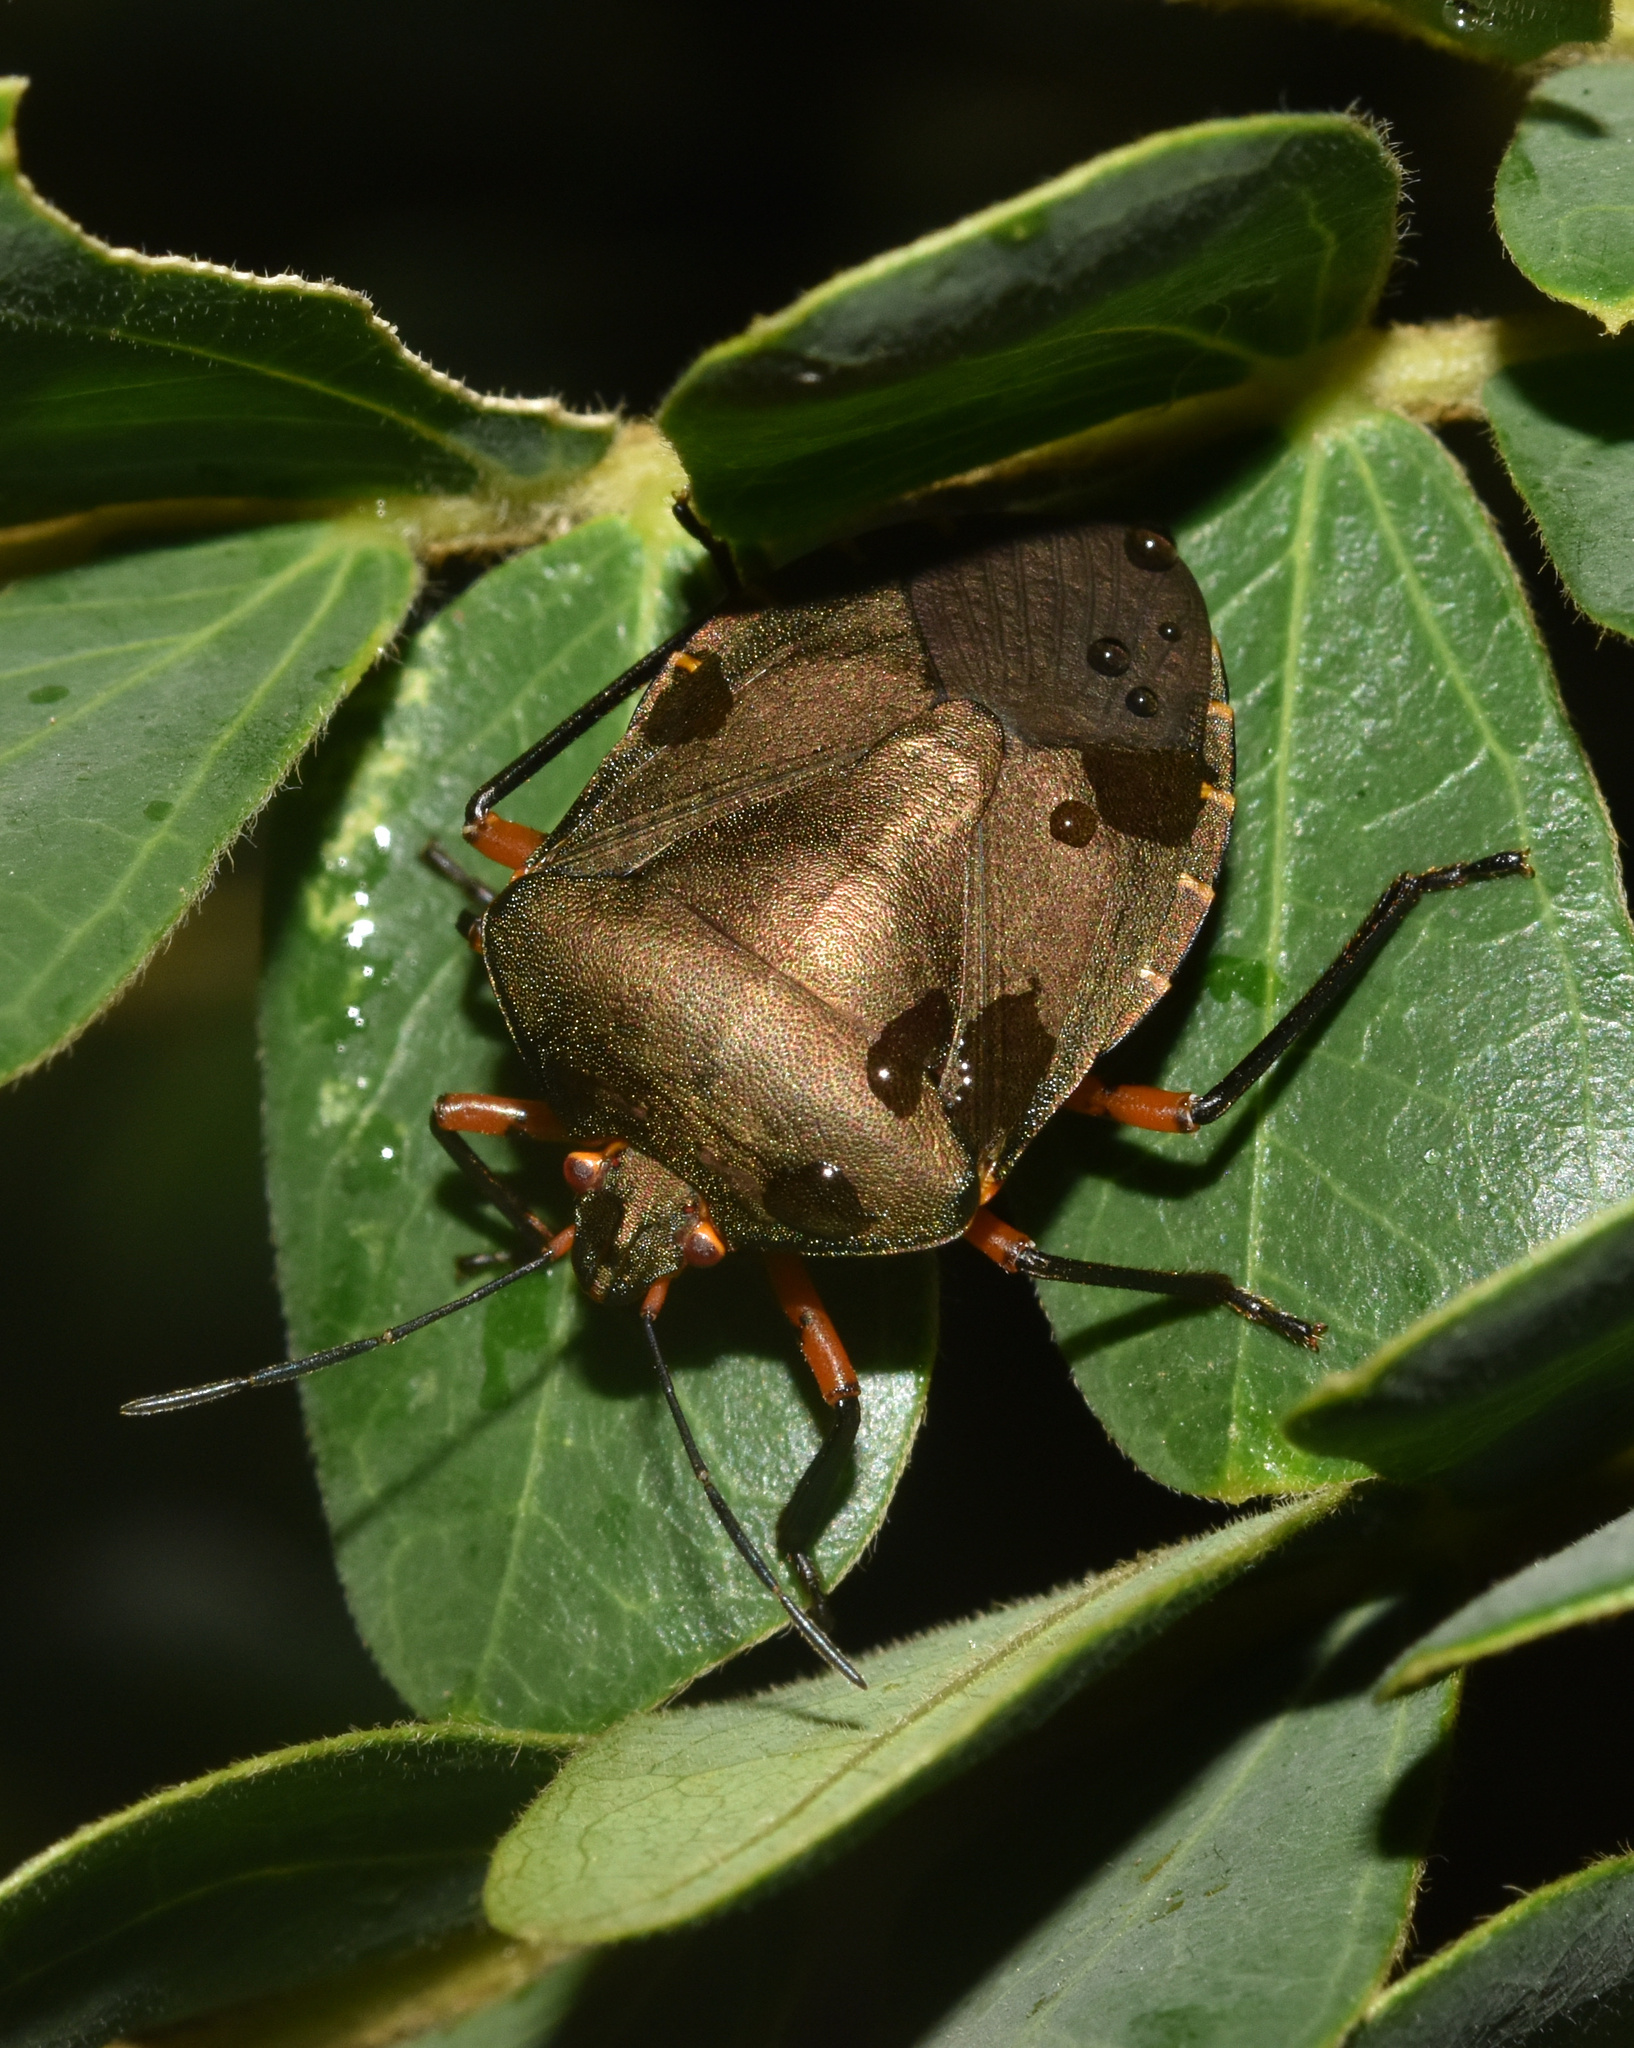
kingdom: Animalia
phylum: Arthropoda
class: Insecta
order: Hemiptera
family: Pentatomidae
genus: Caura
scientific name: Caura rufiventris
